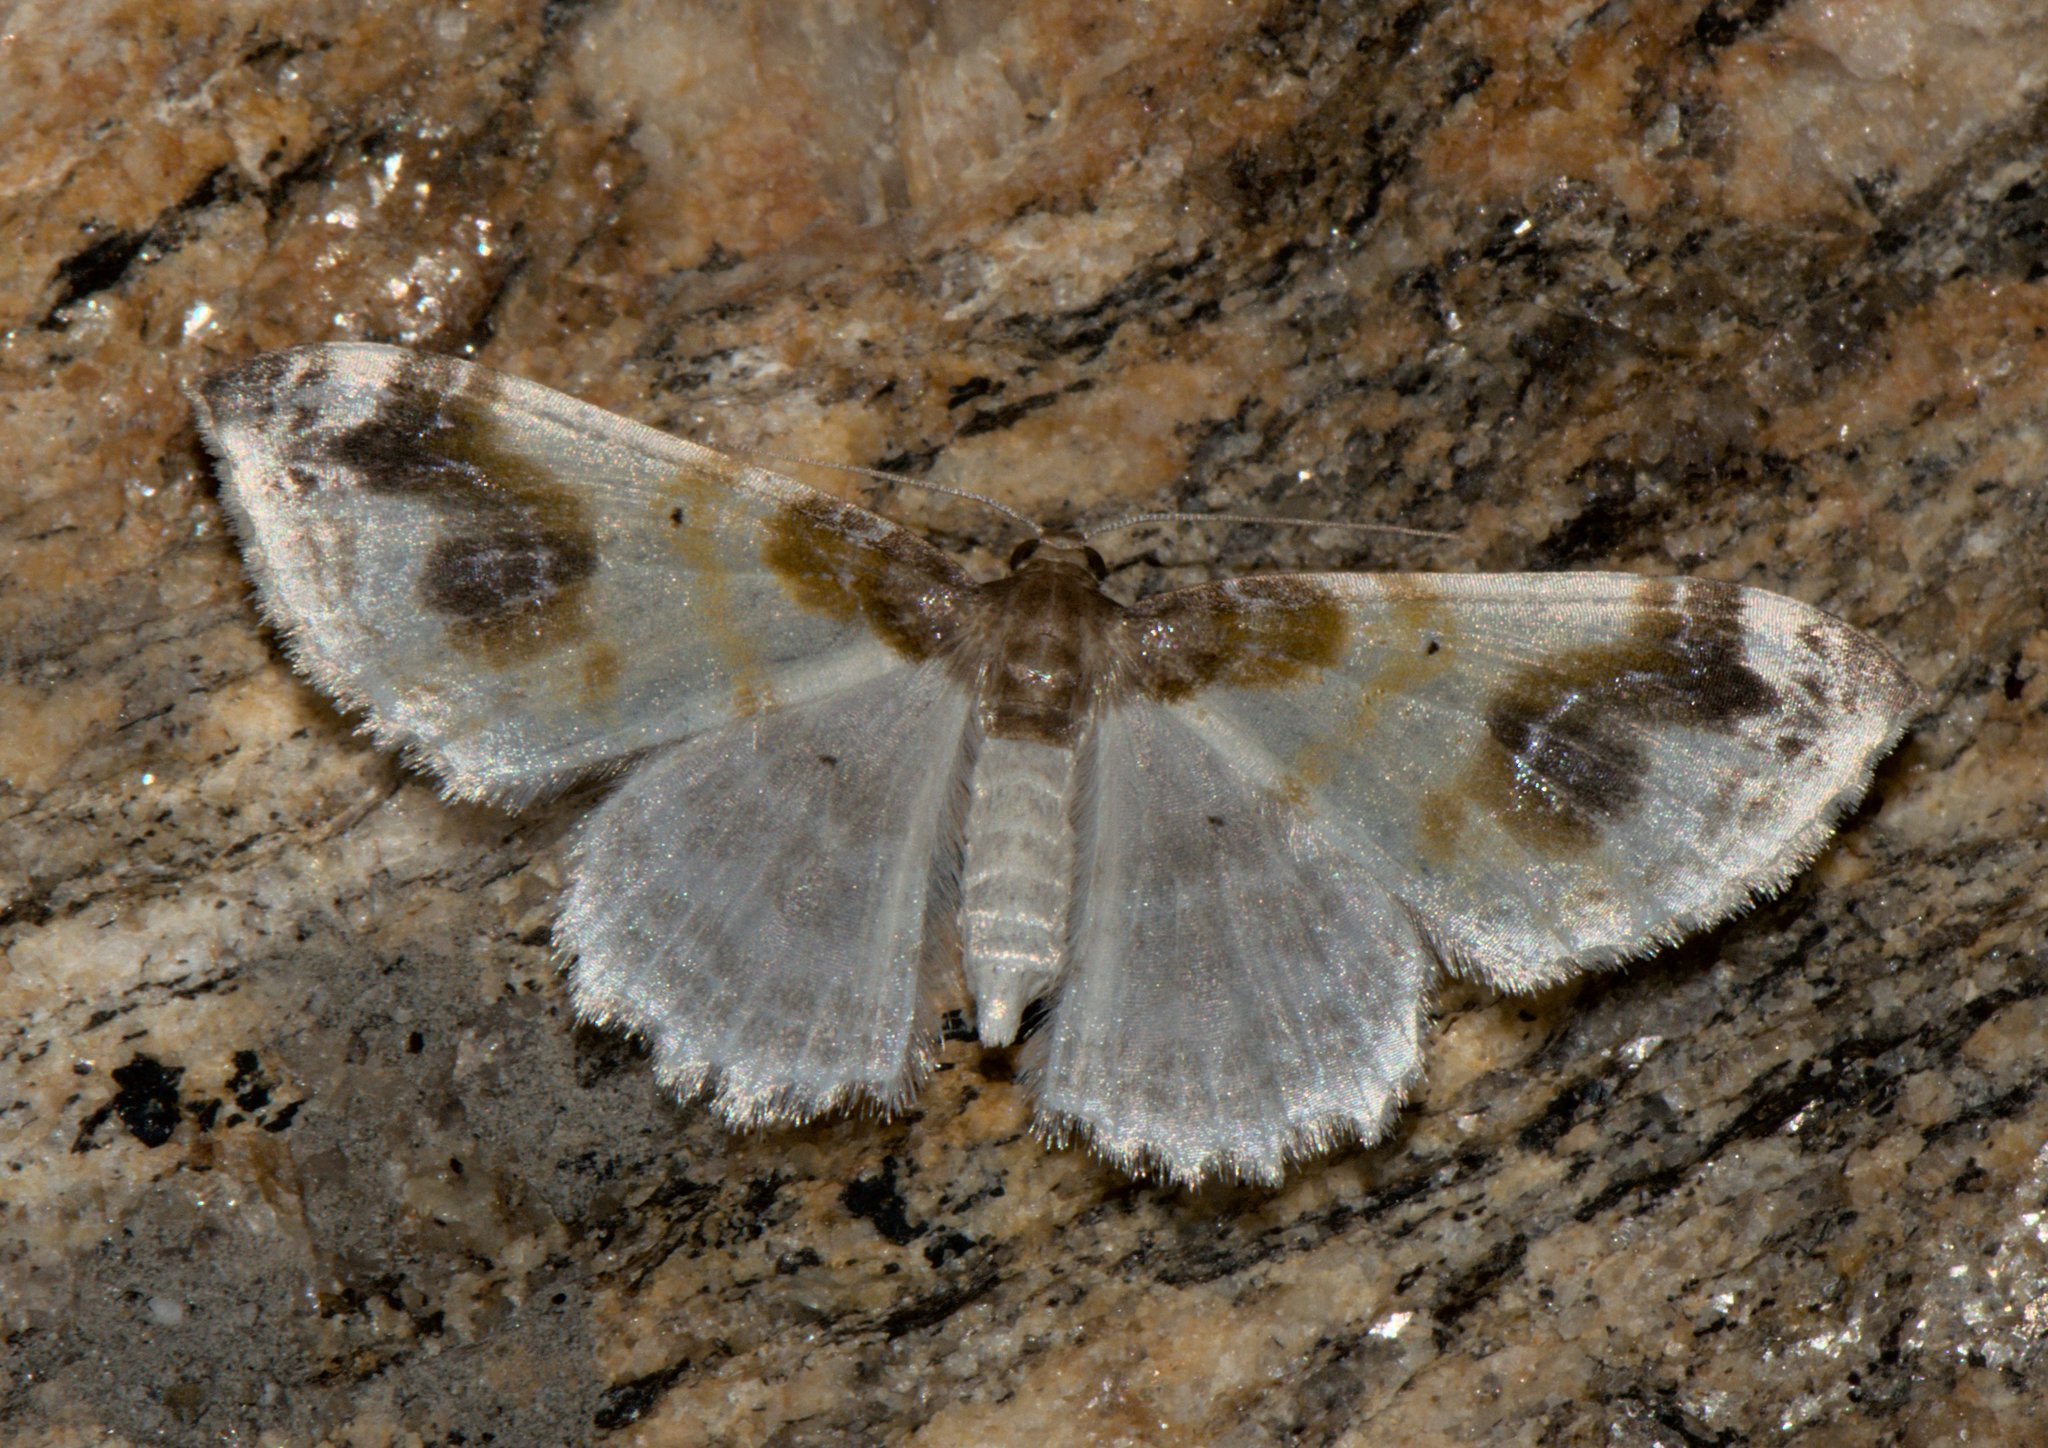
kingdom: Animalia
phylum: Arthropoda
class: Insecta
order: Lepidoptera
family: Geometridae
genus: Agnibesa
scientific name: Agnibesa pictaria
